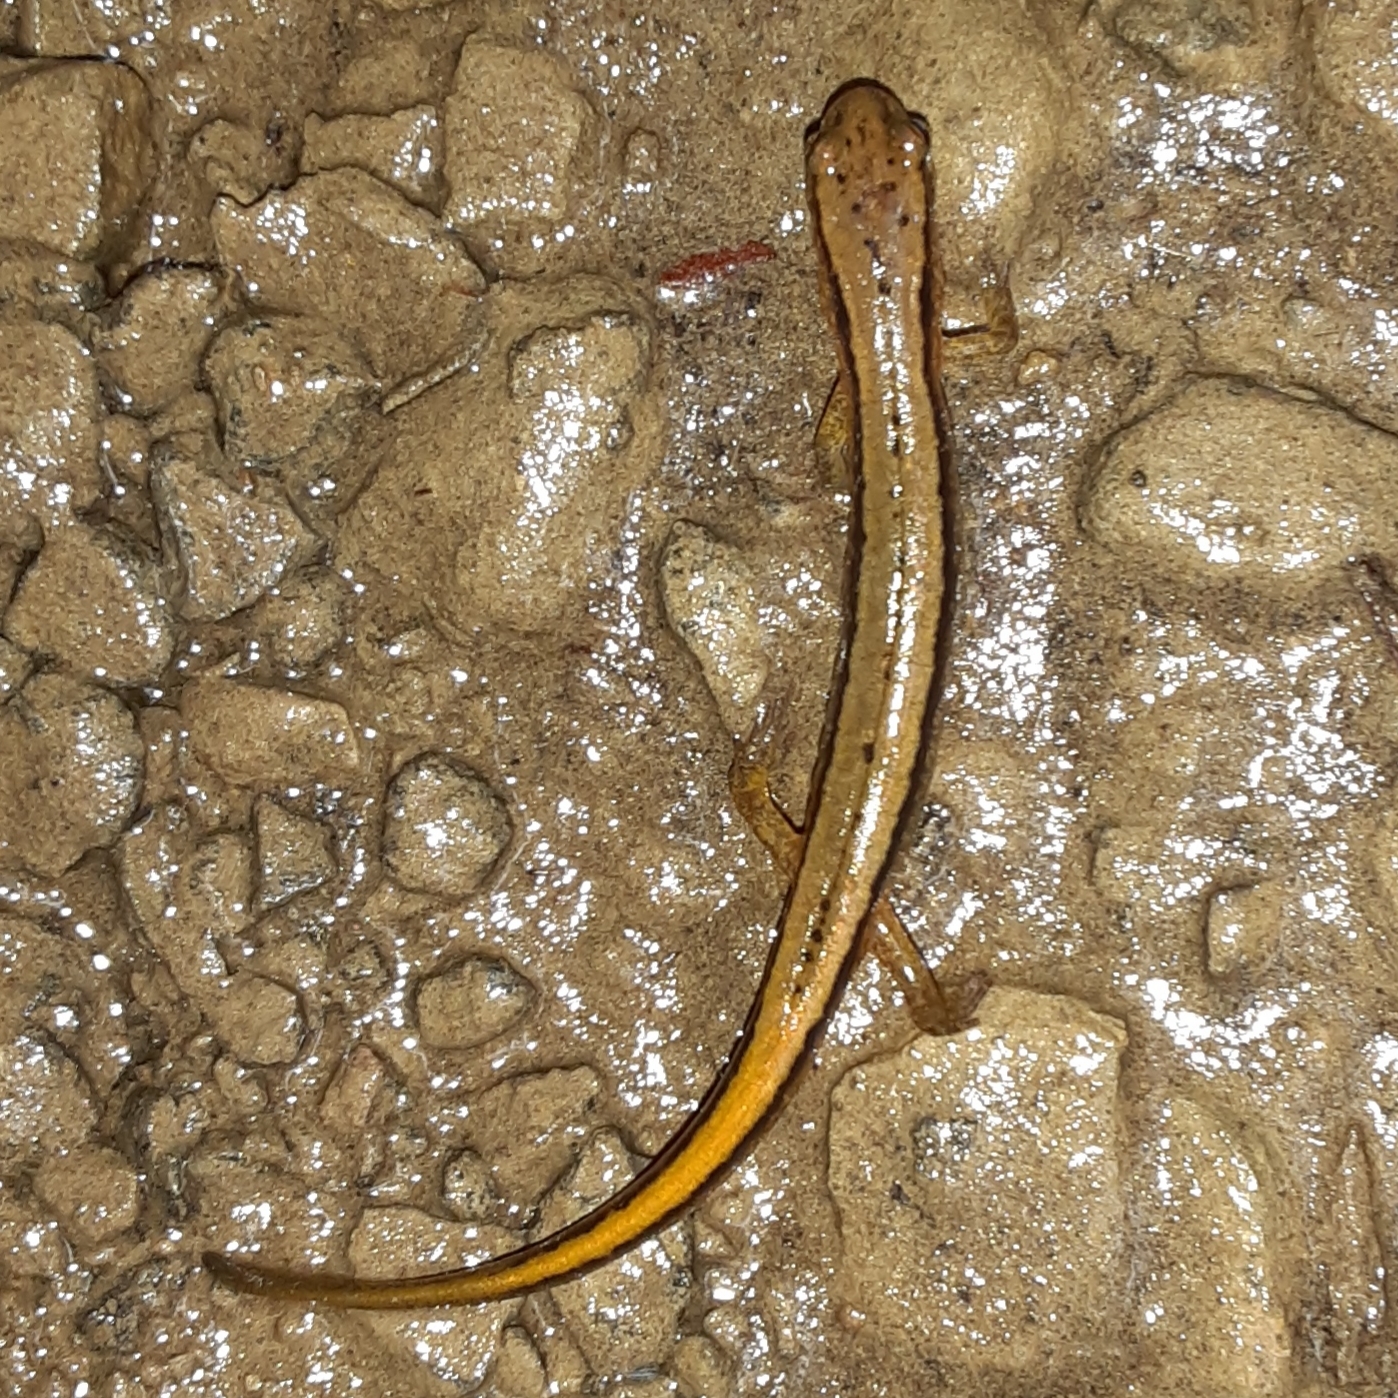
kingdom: Animalia
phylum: Chordata
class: Amphibia
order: Caudata
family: Plethodontidae
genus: Eurycea
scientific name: Eurycea bislineata
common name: Northern two-lined salamander
